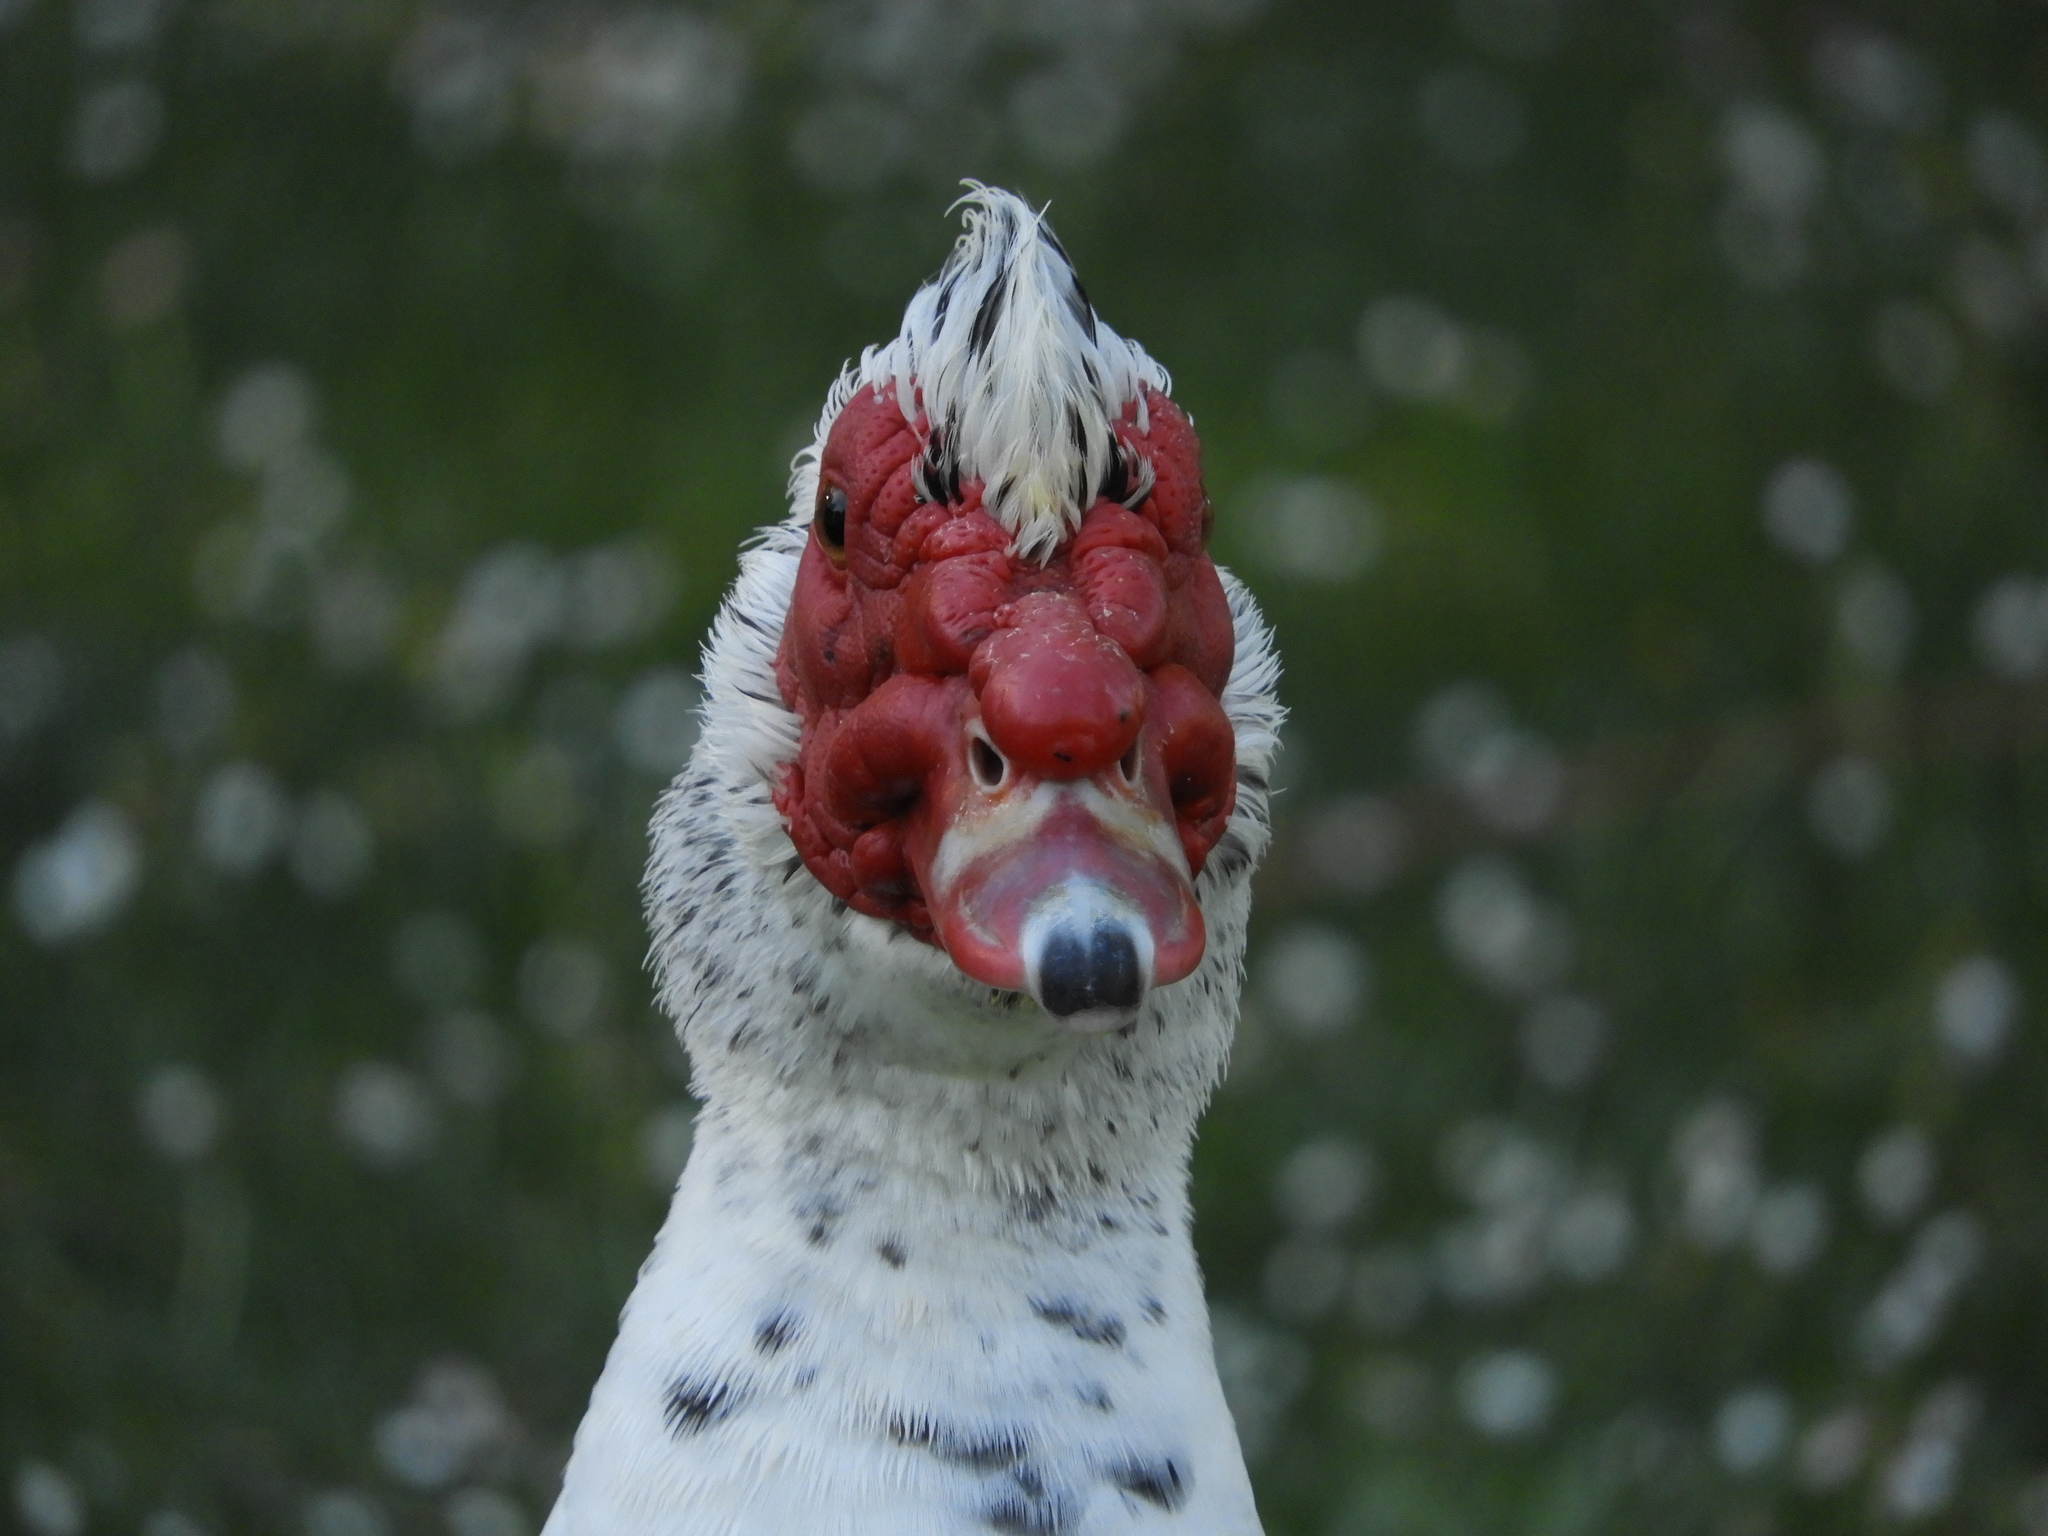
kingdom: Animalia
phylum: Chordata
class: Aves
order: Anseriformes
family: Anatidae
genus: Cairina
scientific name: Cairina moschata
